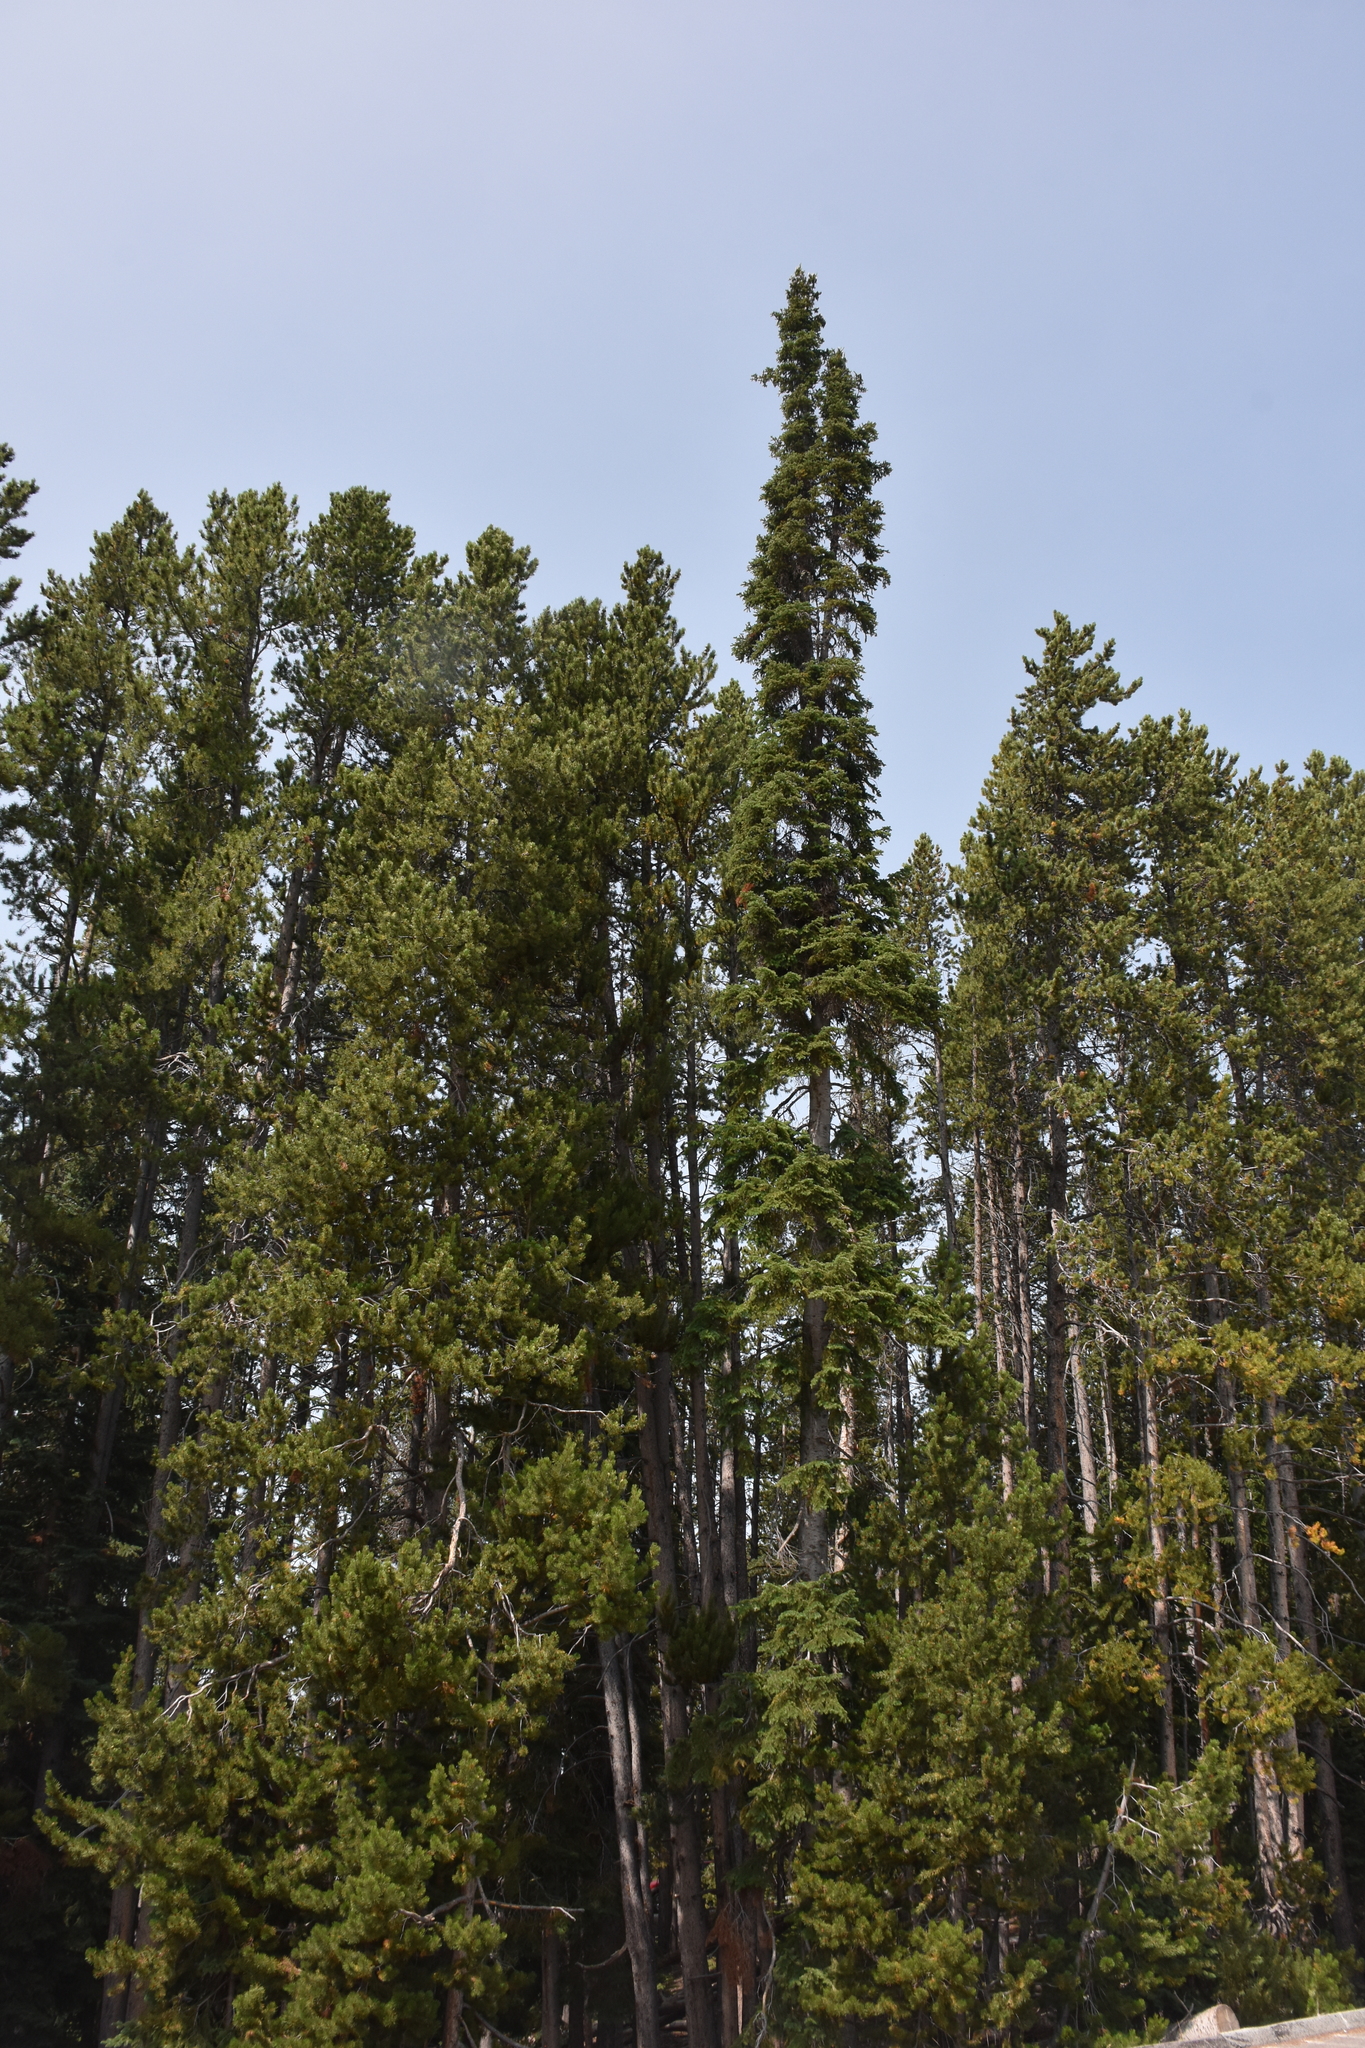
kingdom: Plantae
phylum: Tracheophyta
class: Pinopsida
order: Pinales
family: Pinaceae
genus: Abies
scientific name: Abies lasiocarpa
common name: Subalpine fir
